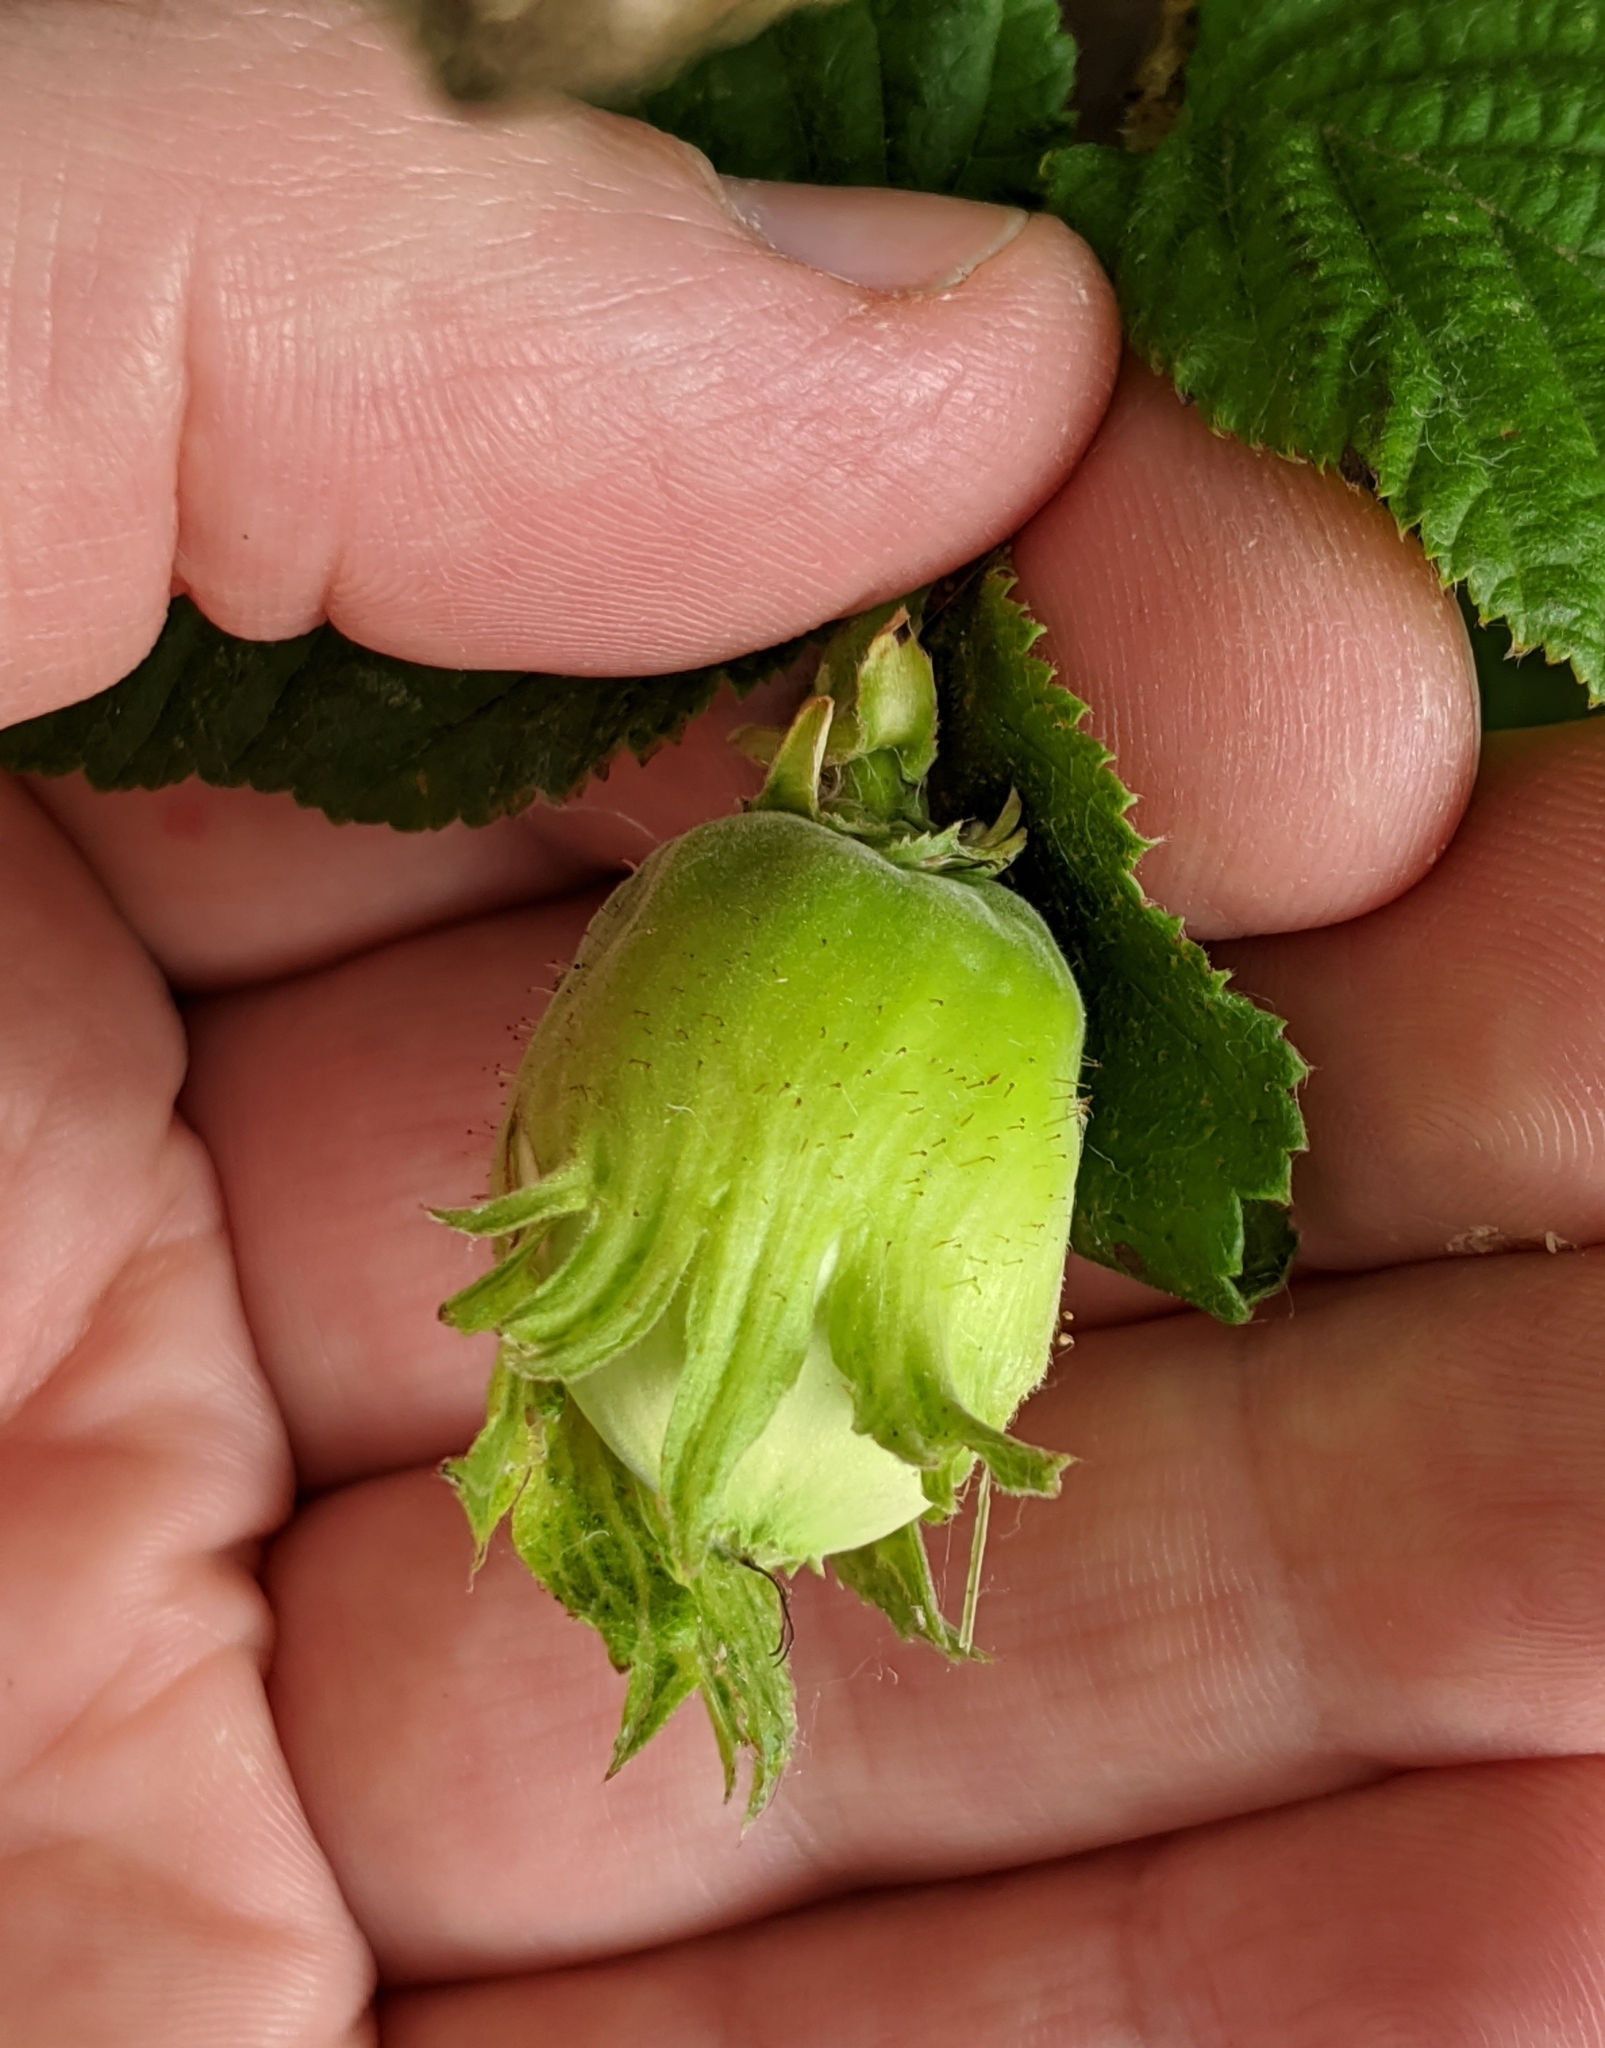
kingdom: Plantae
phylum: Tracheophyta
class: Magnoliopsida
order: Fagales
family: Betulaceae
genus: Corylus
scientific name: Corylus cornuta
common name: Beaked hazel
